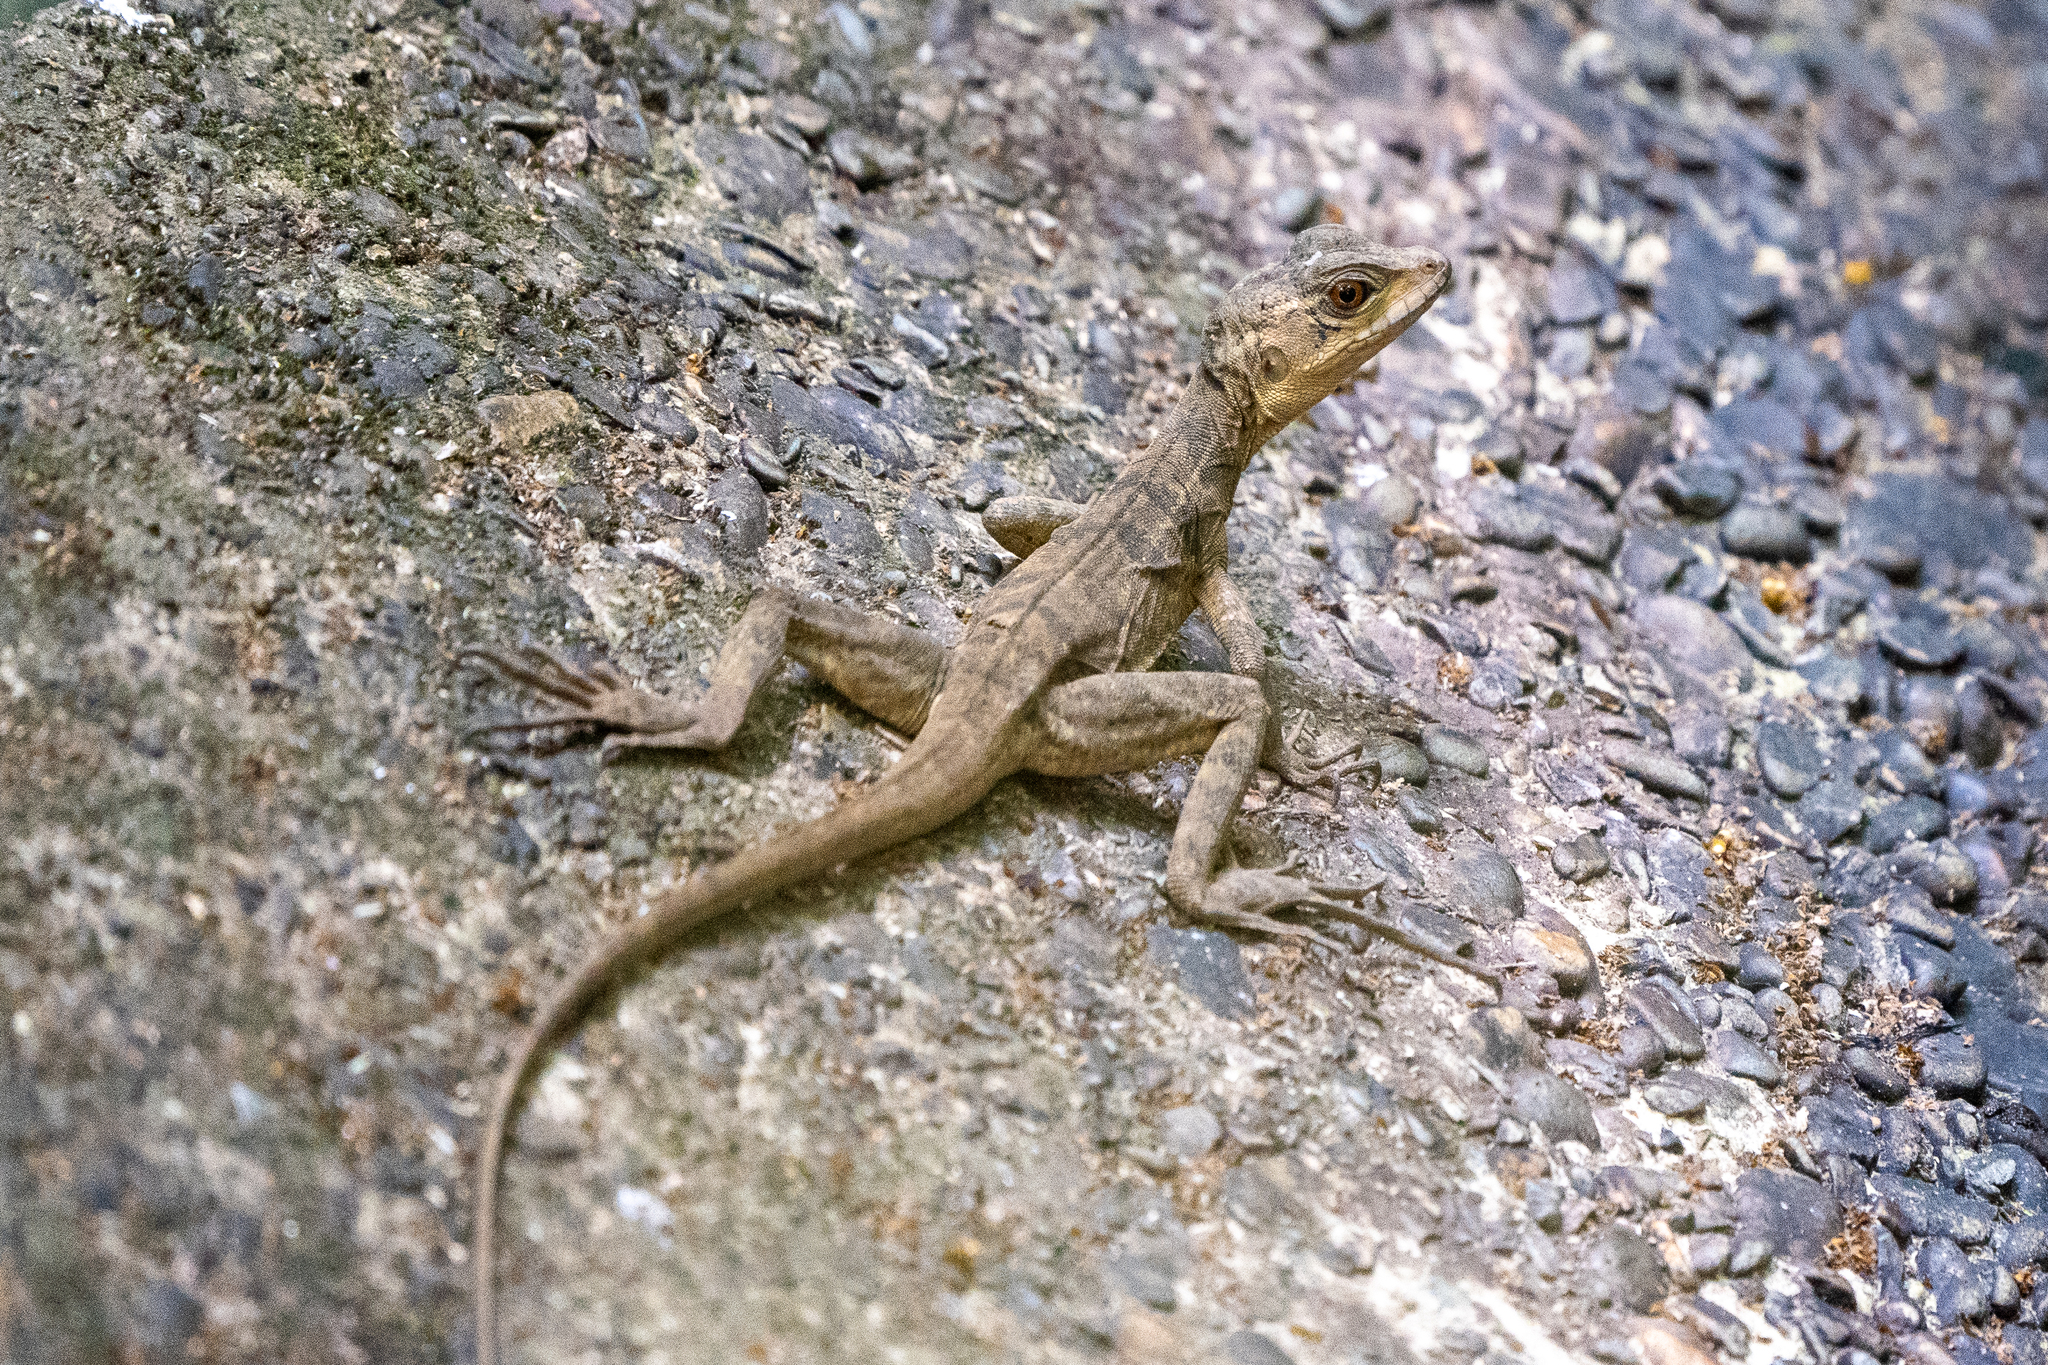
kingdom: Animalia
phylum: Chordata
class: Squamata
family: Corytophanidae
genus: Basiliscus
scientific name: Basiliscus basiliscus
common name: Common basilisk
